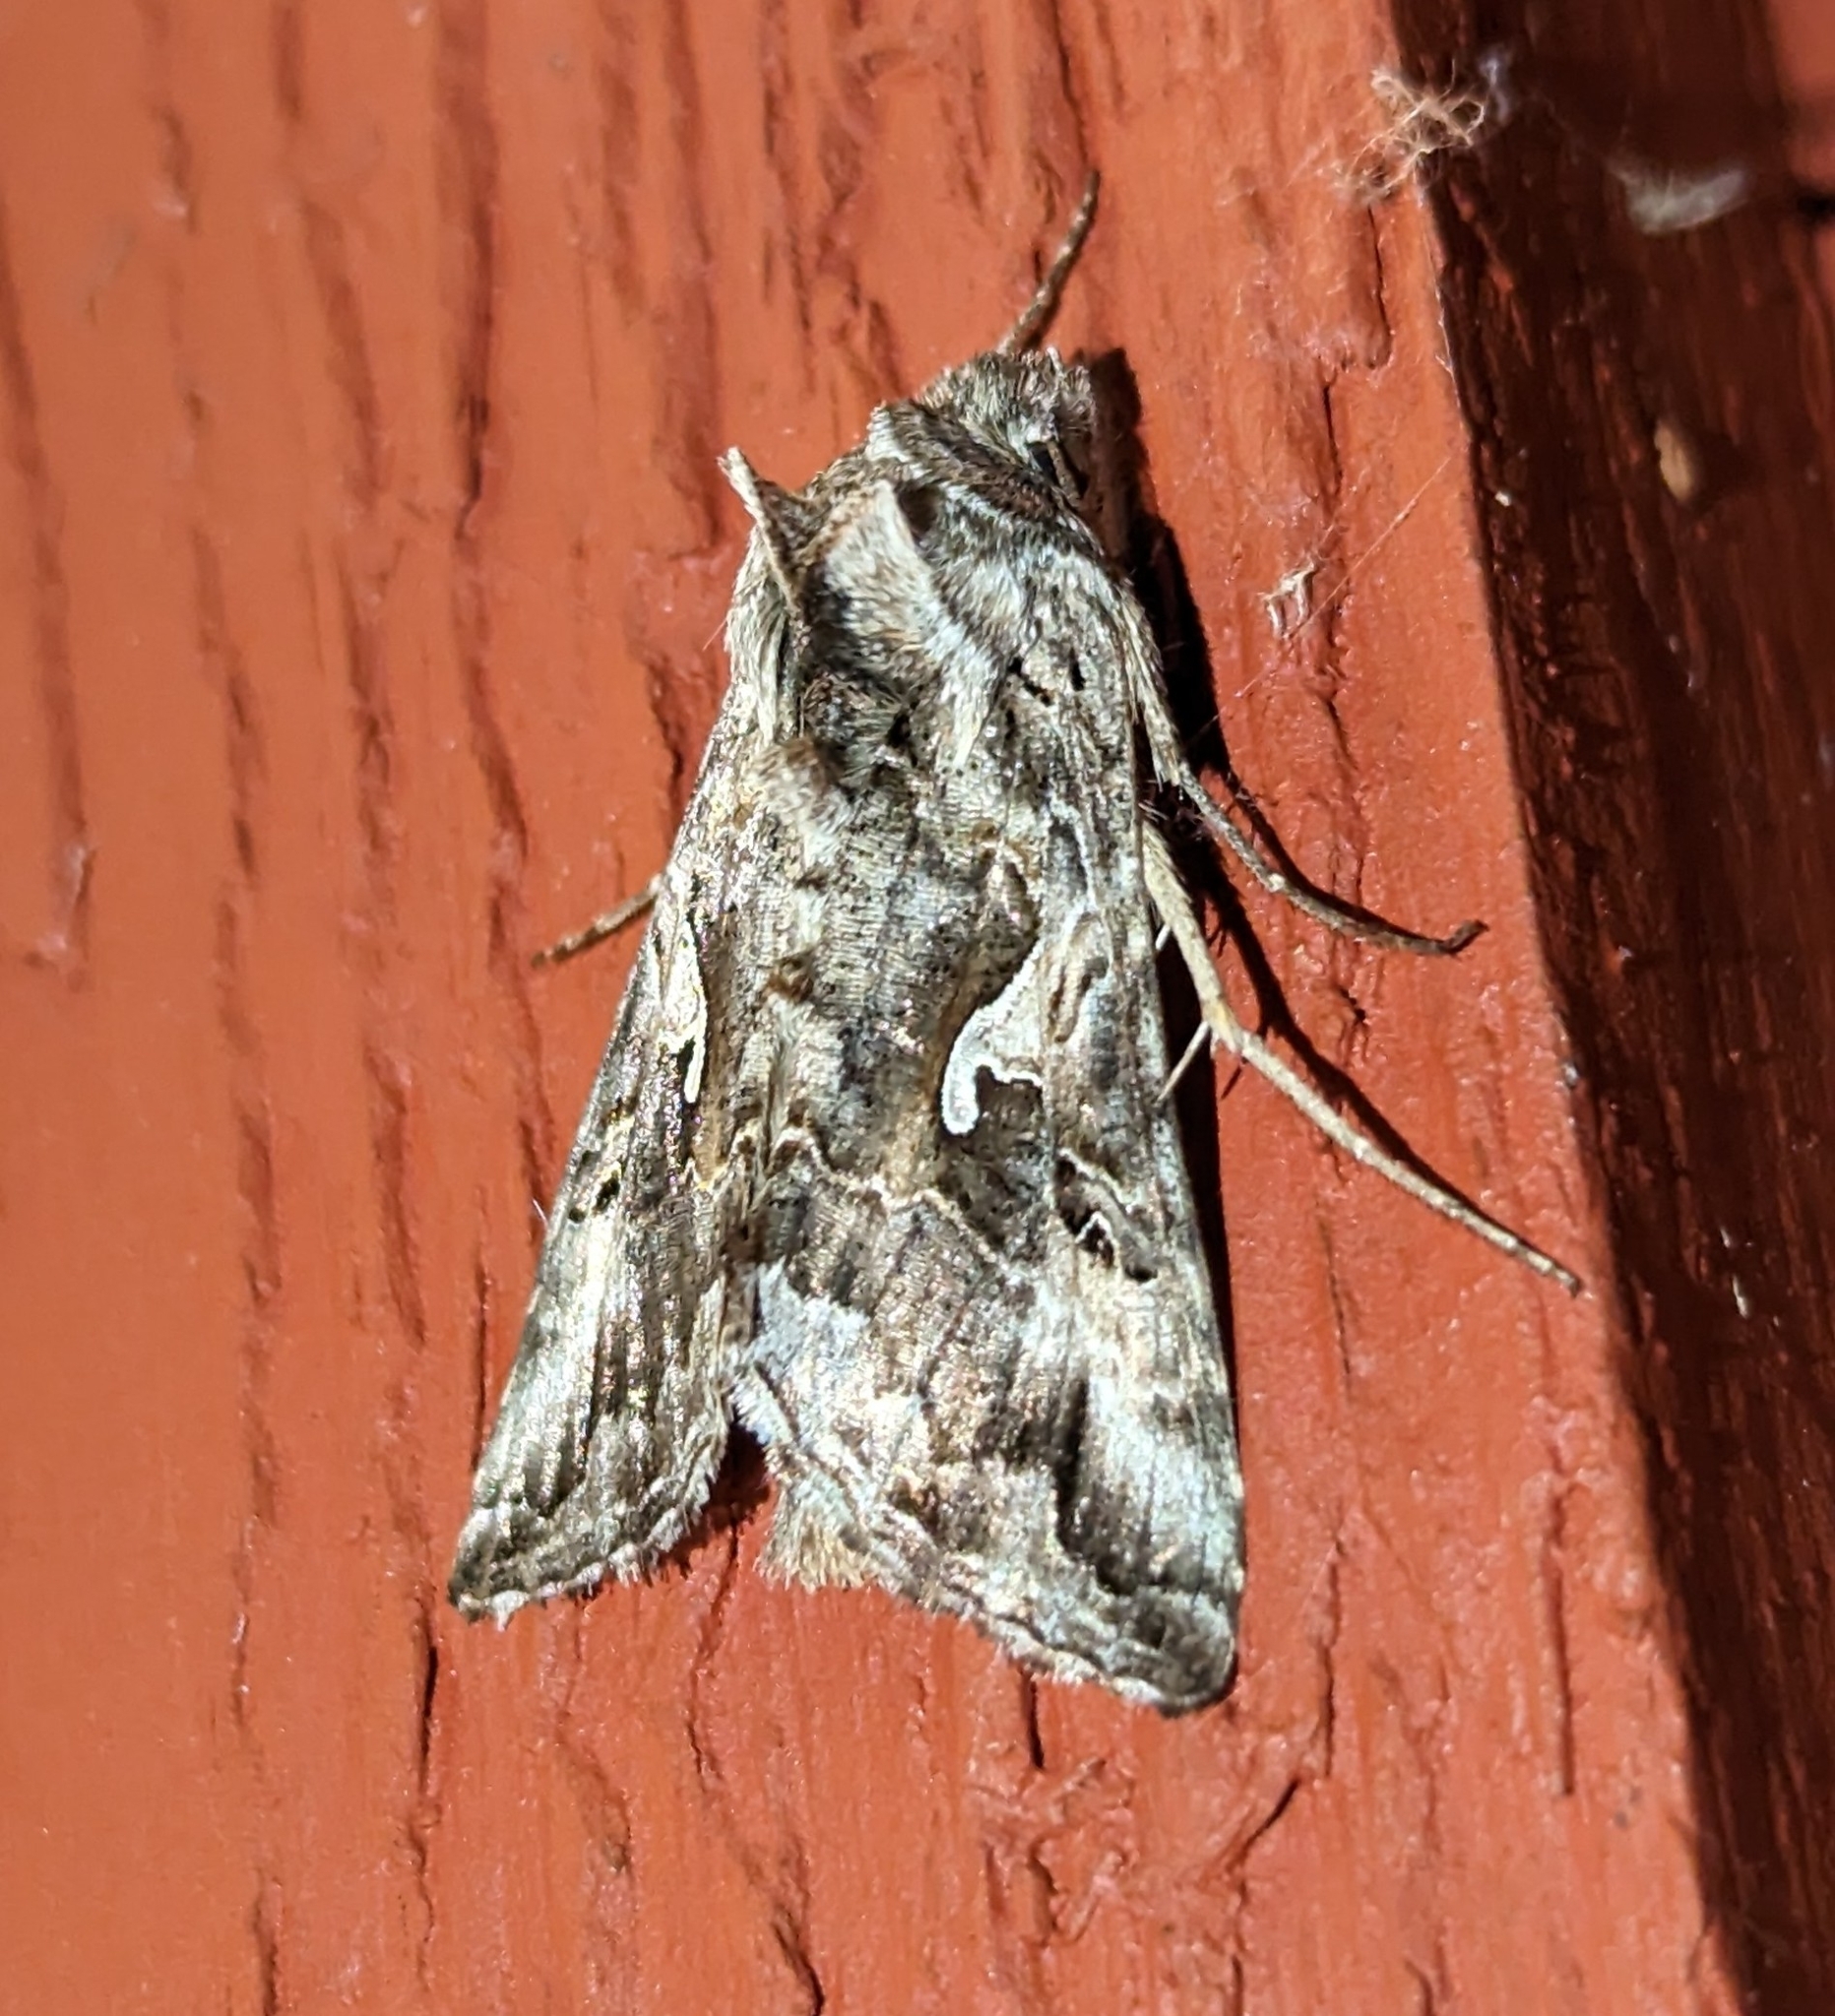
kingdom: Animalia
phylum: Arthropoda
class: Insecta
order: Lepidoptera
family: Noctuidae
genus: Autographa
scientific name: Autographa californica
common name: Alfalfa looper
